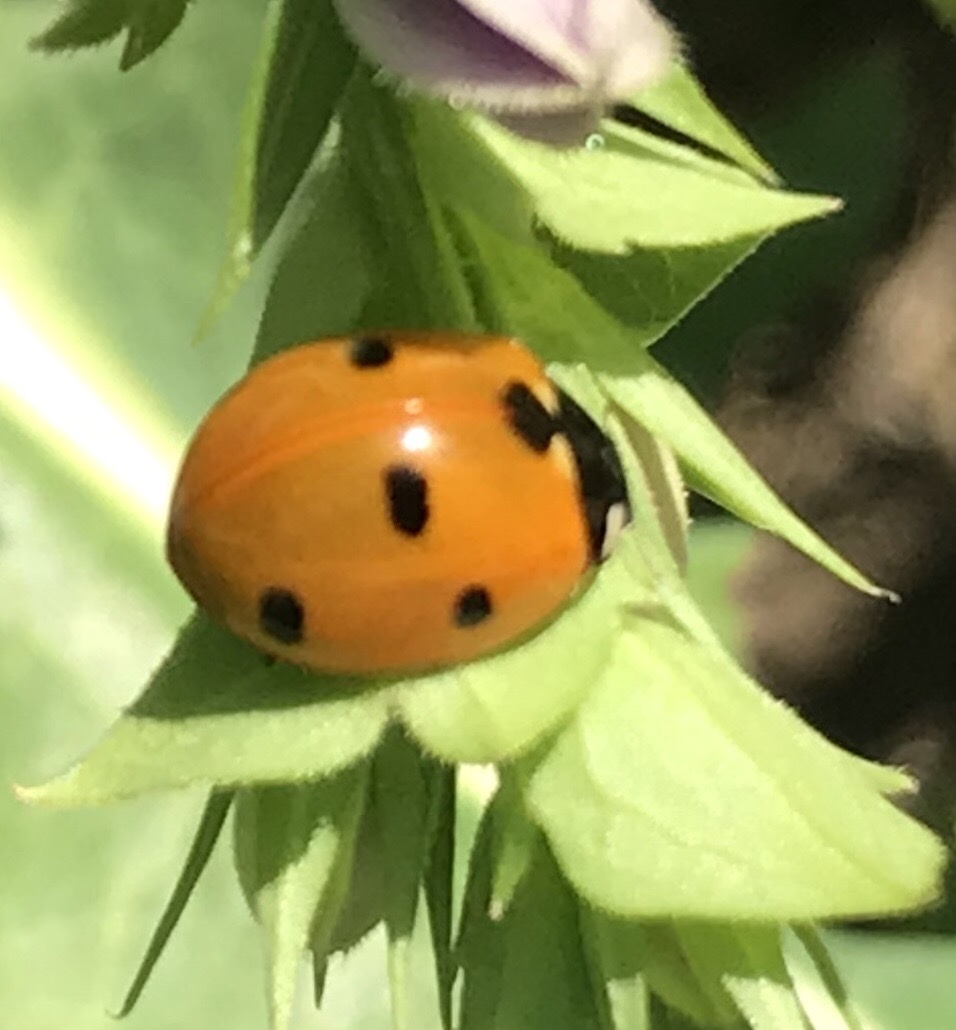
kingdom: Animalia
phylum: Arthropoda
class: Insecta
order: Coleoptera
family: Coccinellidae
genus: Coccinella
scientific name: Coccinella septempunctata
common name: Sevenspotted lady beetle
